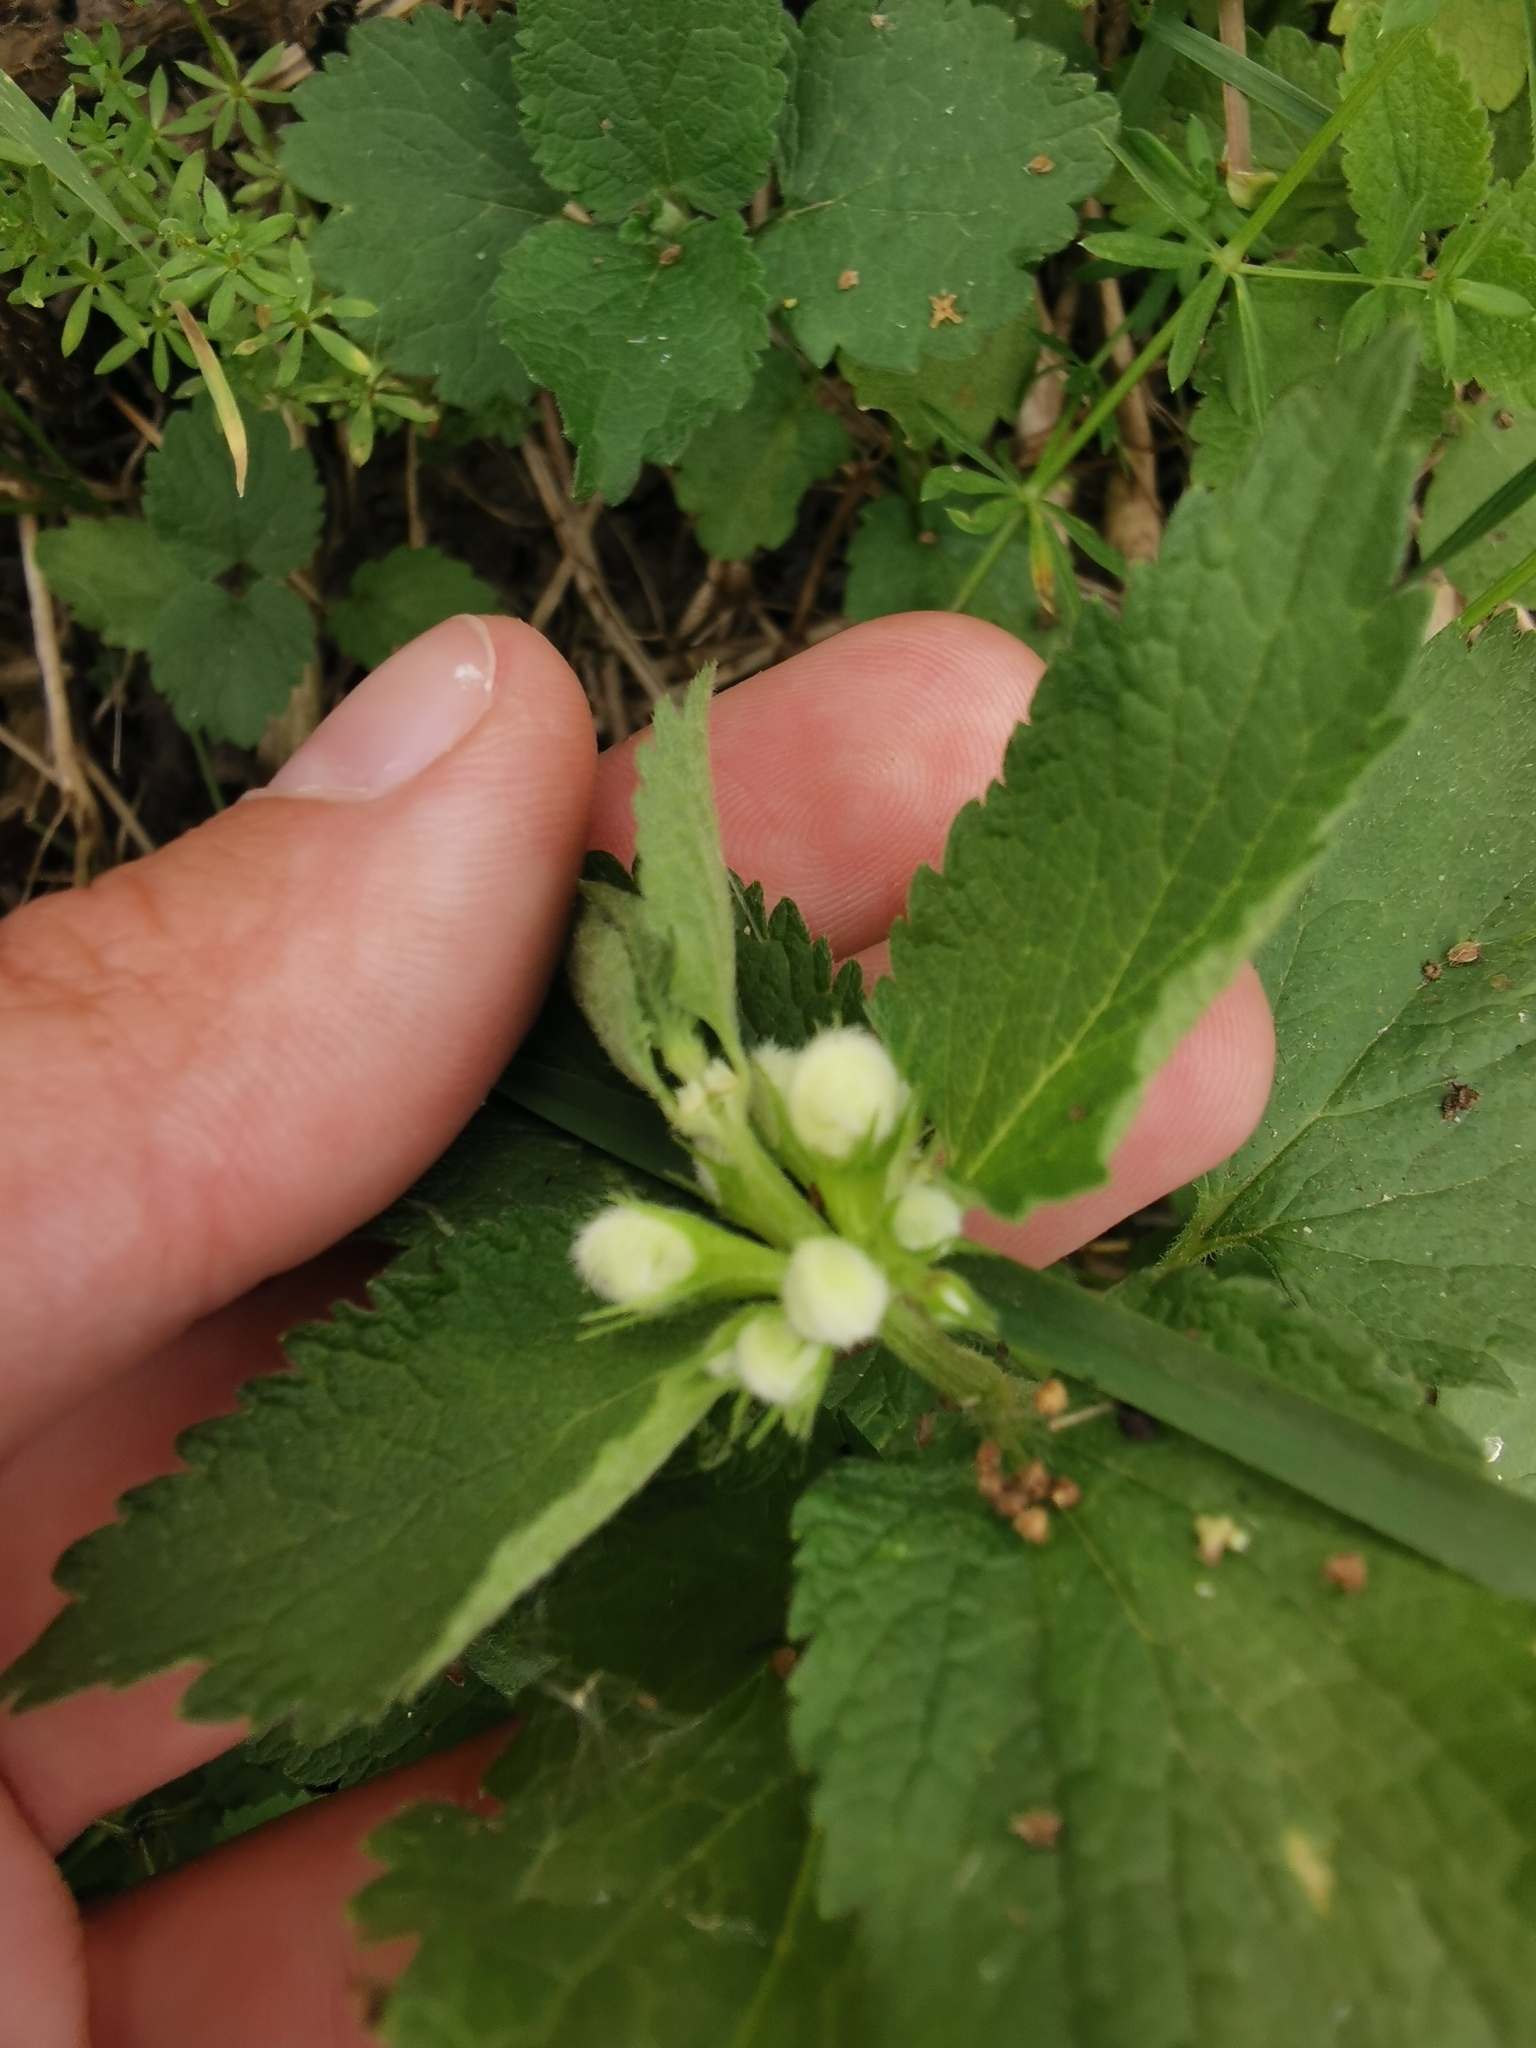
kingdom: Plantae
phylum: Tracheophyta
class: Magnoliopsida
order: Lamiales
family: Lamiaceae
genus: Lamium
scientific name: Lamium album
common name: White dead-nettle
